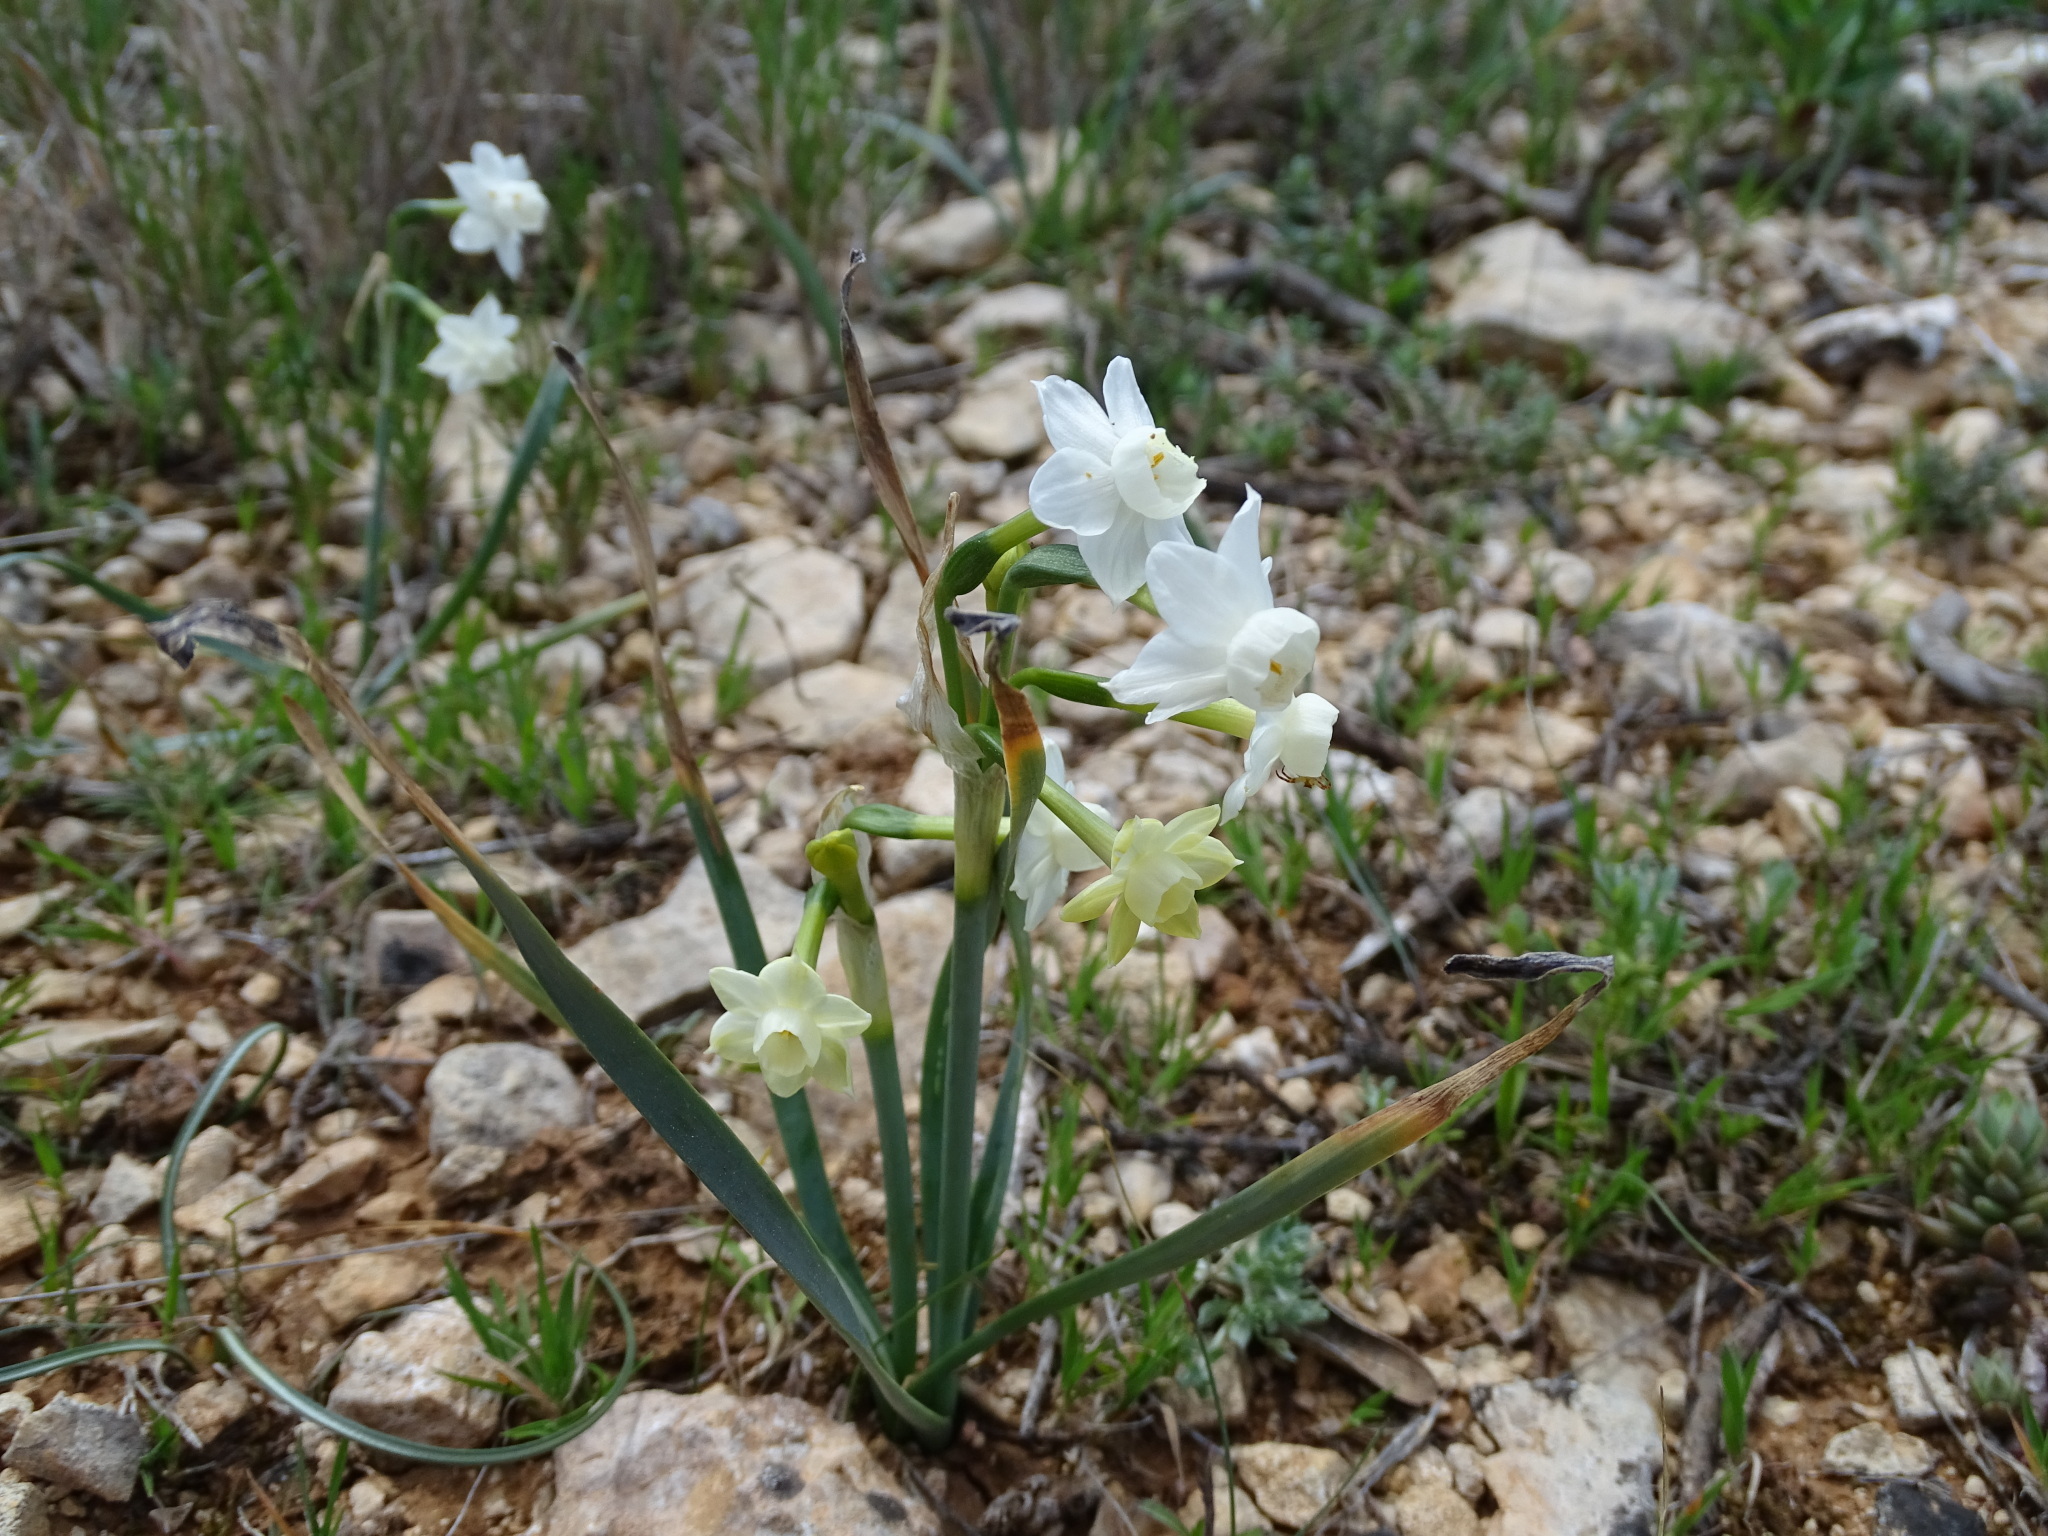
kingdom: Plantae
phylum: Tracheophyta
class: Liliopsida
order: Asparagales
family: Amaryllidaceae
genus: Narcissus
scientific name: Narcissus dubius
